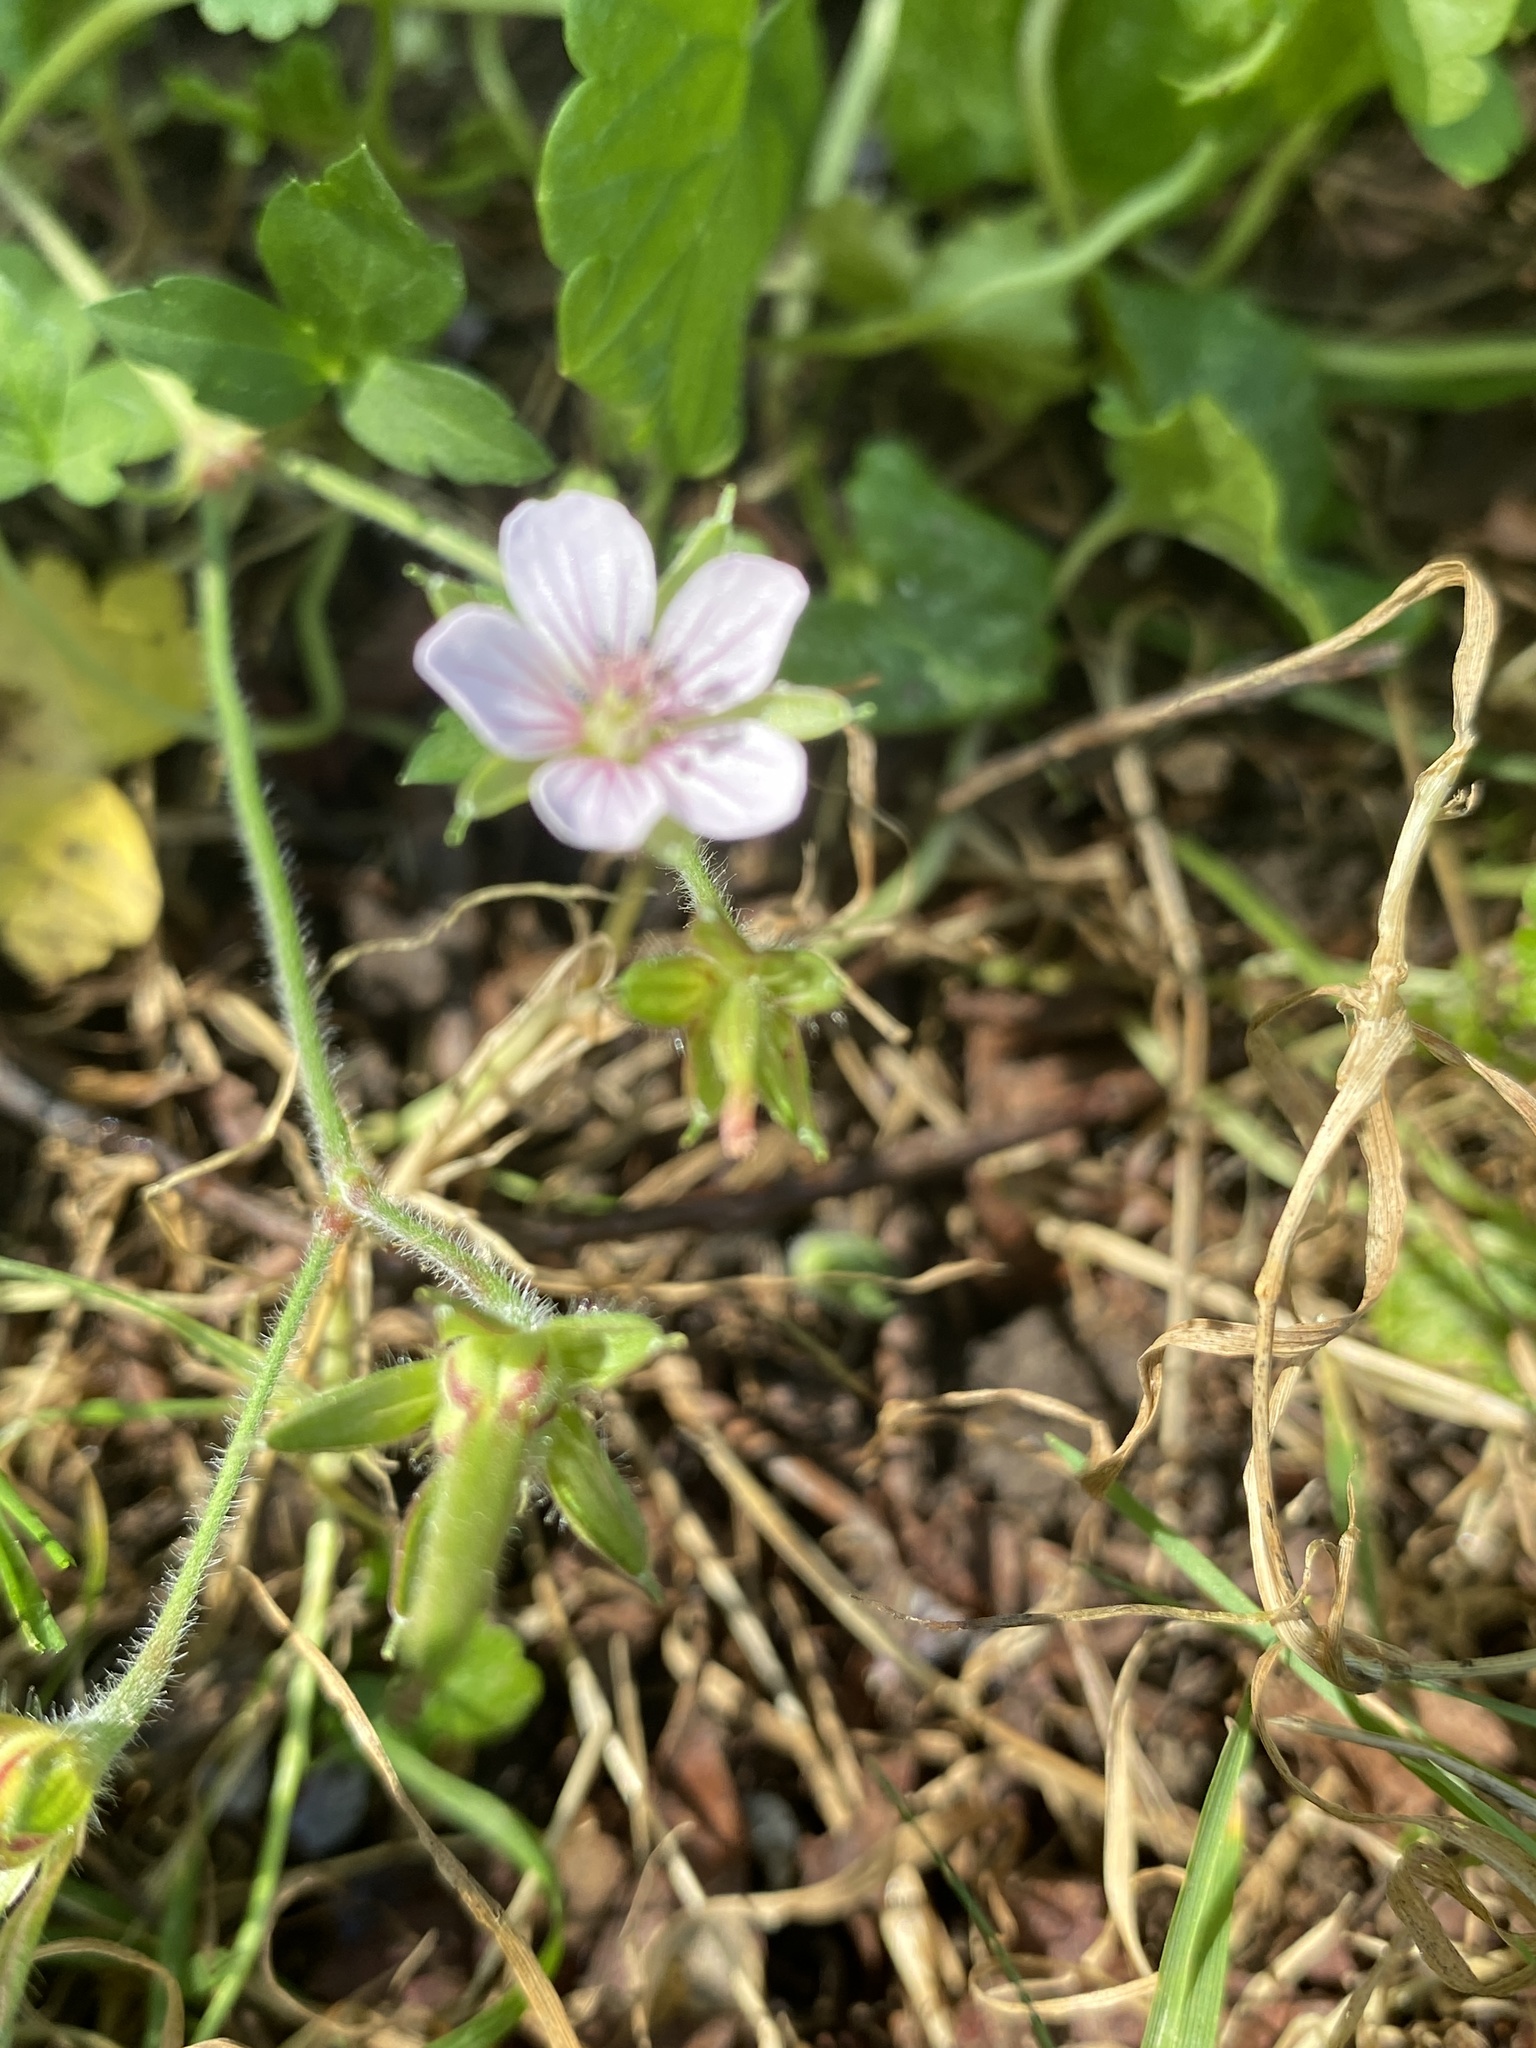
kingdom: Plantae
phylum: Tracheophyta
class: Magnoliopsida
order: Geraniales
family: Geraniaceae
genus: Geranium
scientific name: Geranium thunbergii
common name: Dewdrop crane's-bill
